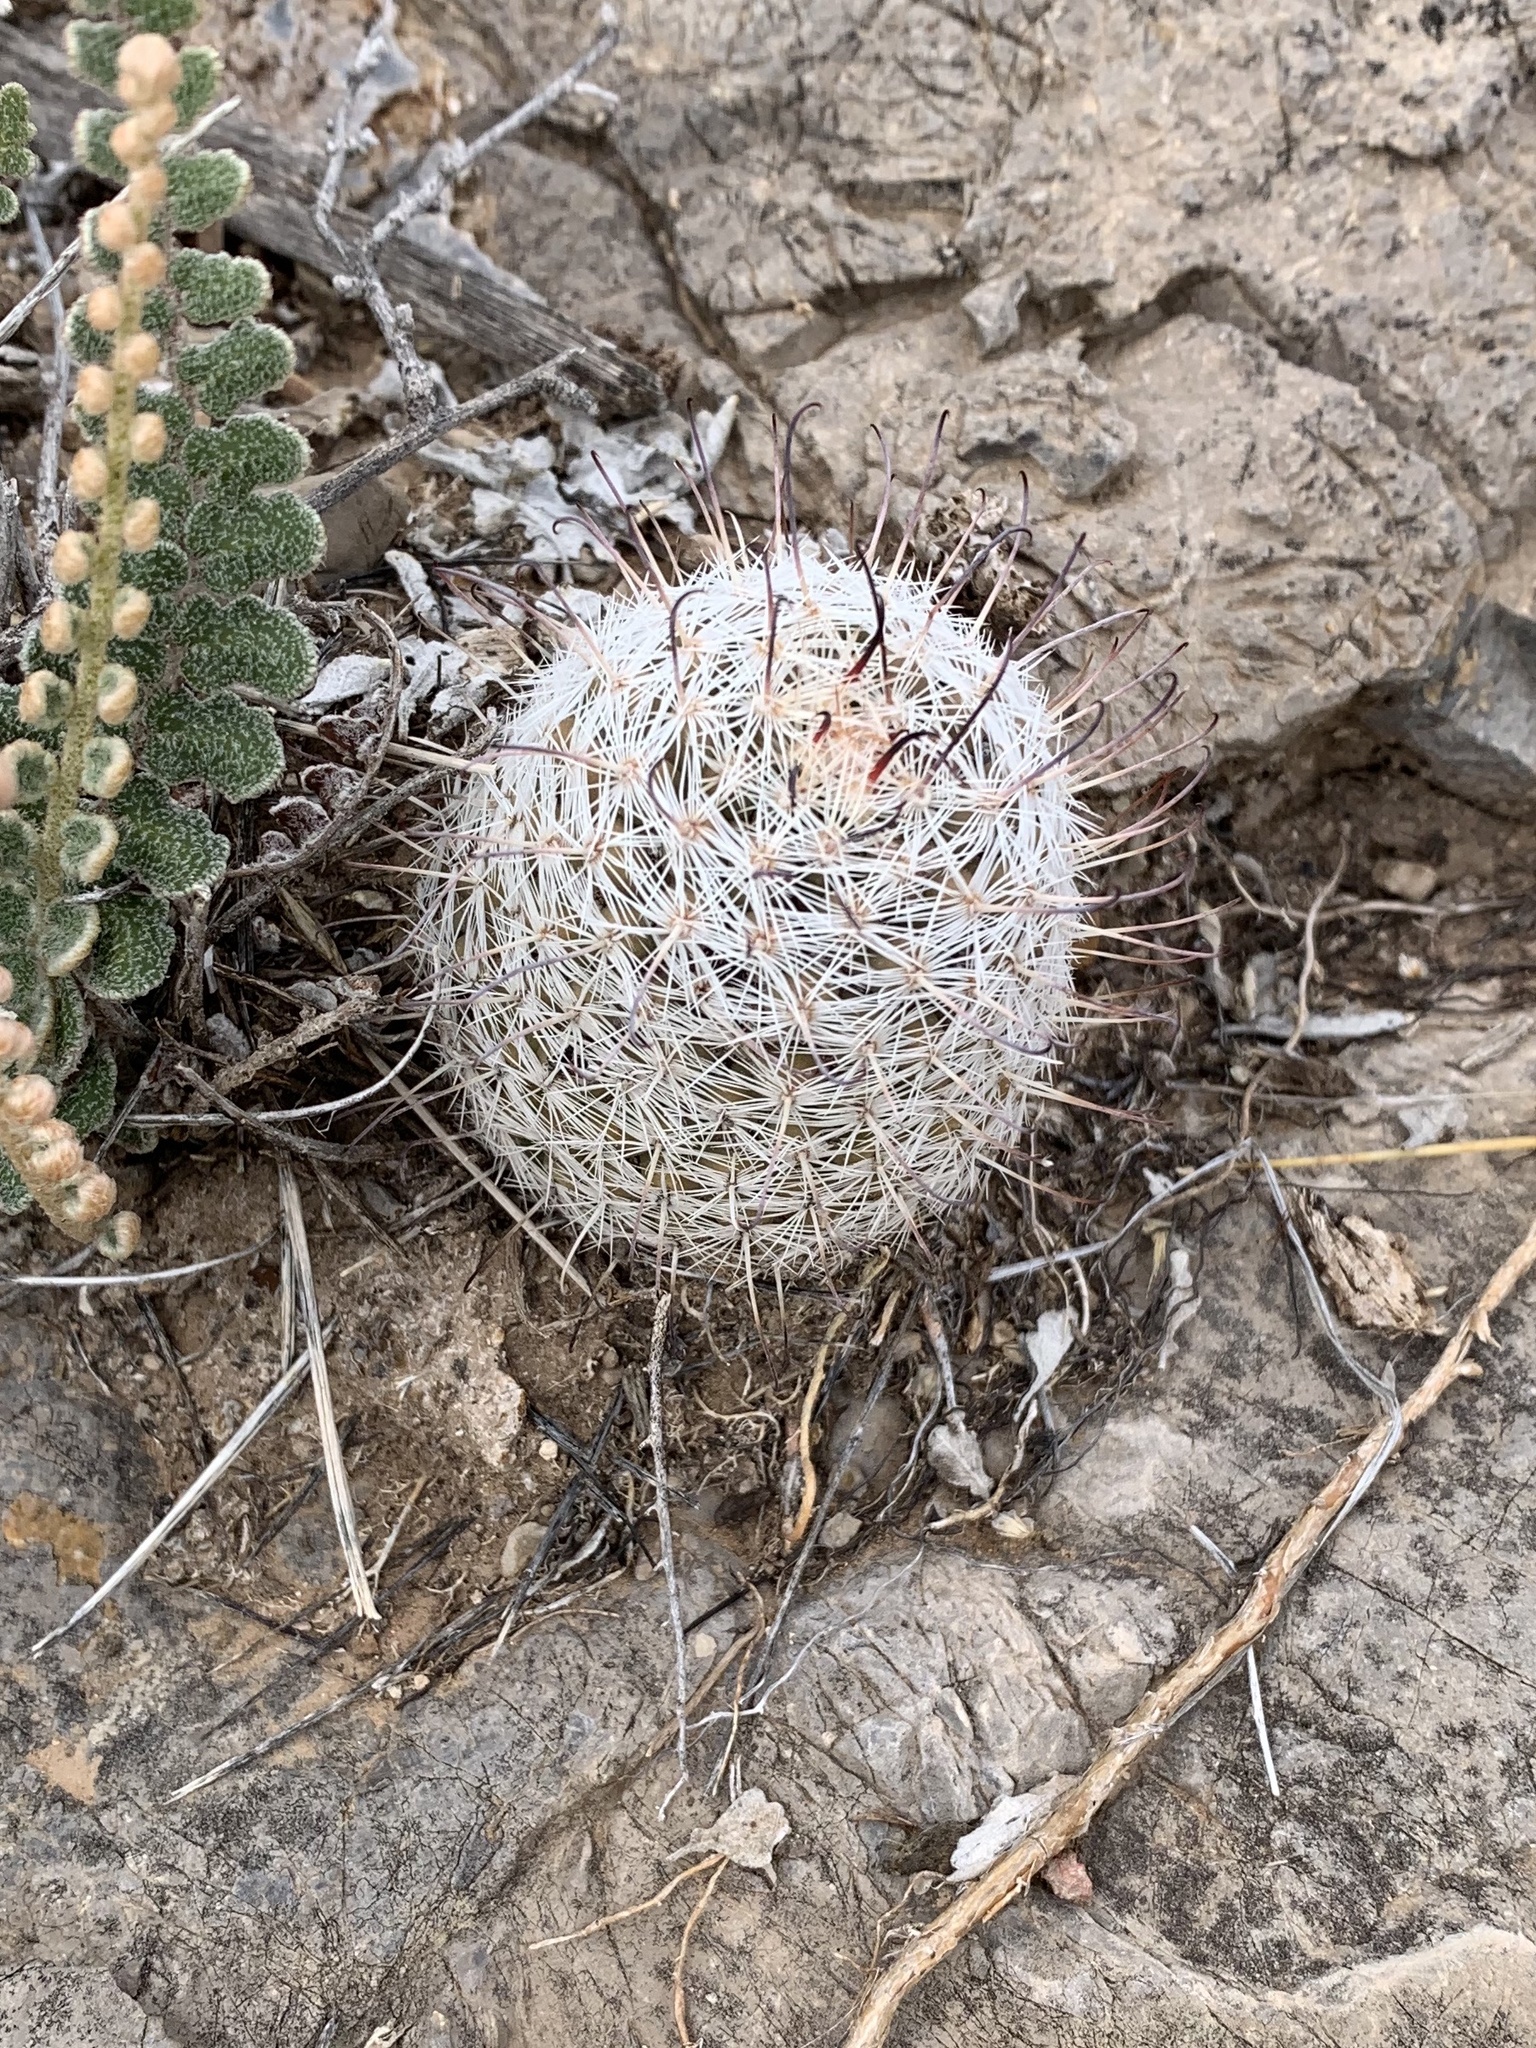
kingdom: Plantae
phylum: Tracheophyta
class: Magnoliopsida
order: Caryophyllales
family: Cactaceae
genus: Cochemiea
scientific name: Cochemiea grahamii
